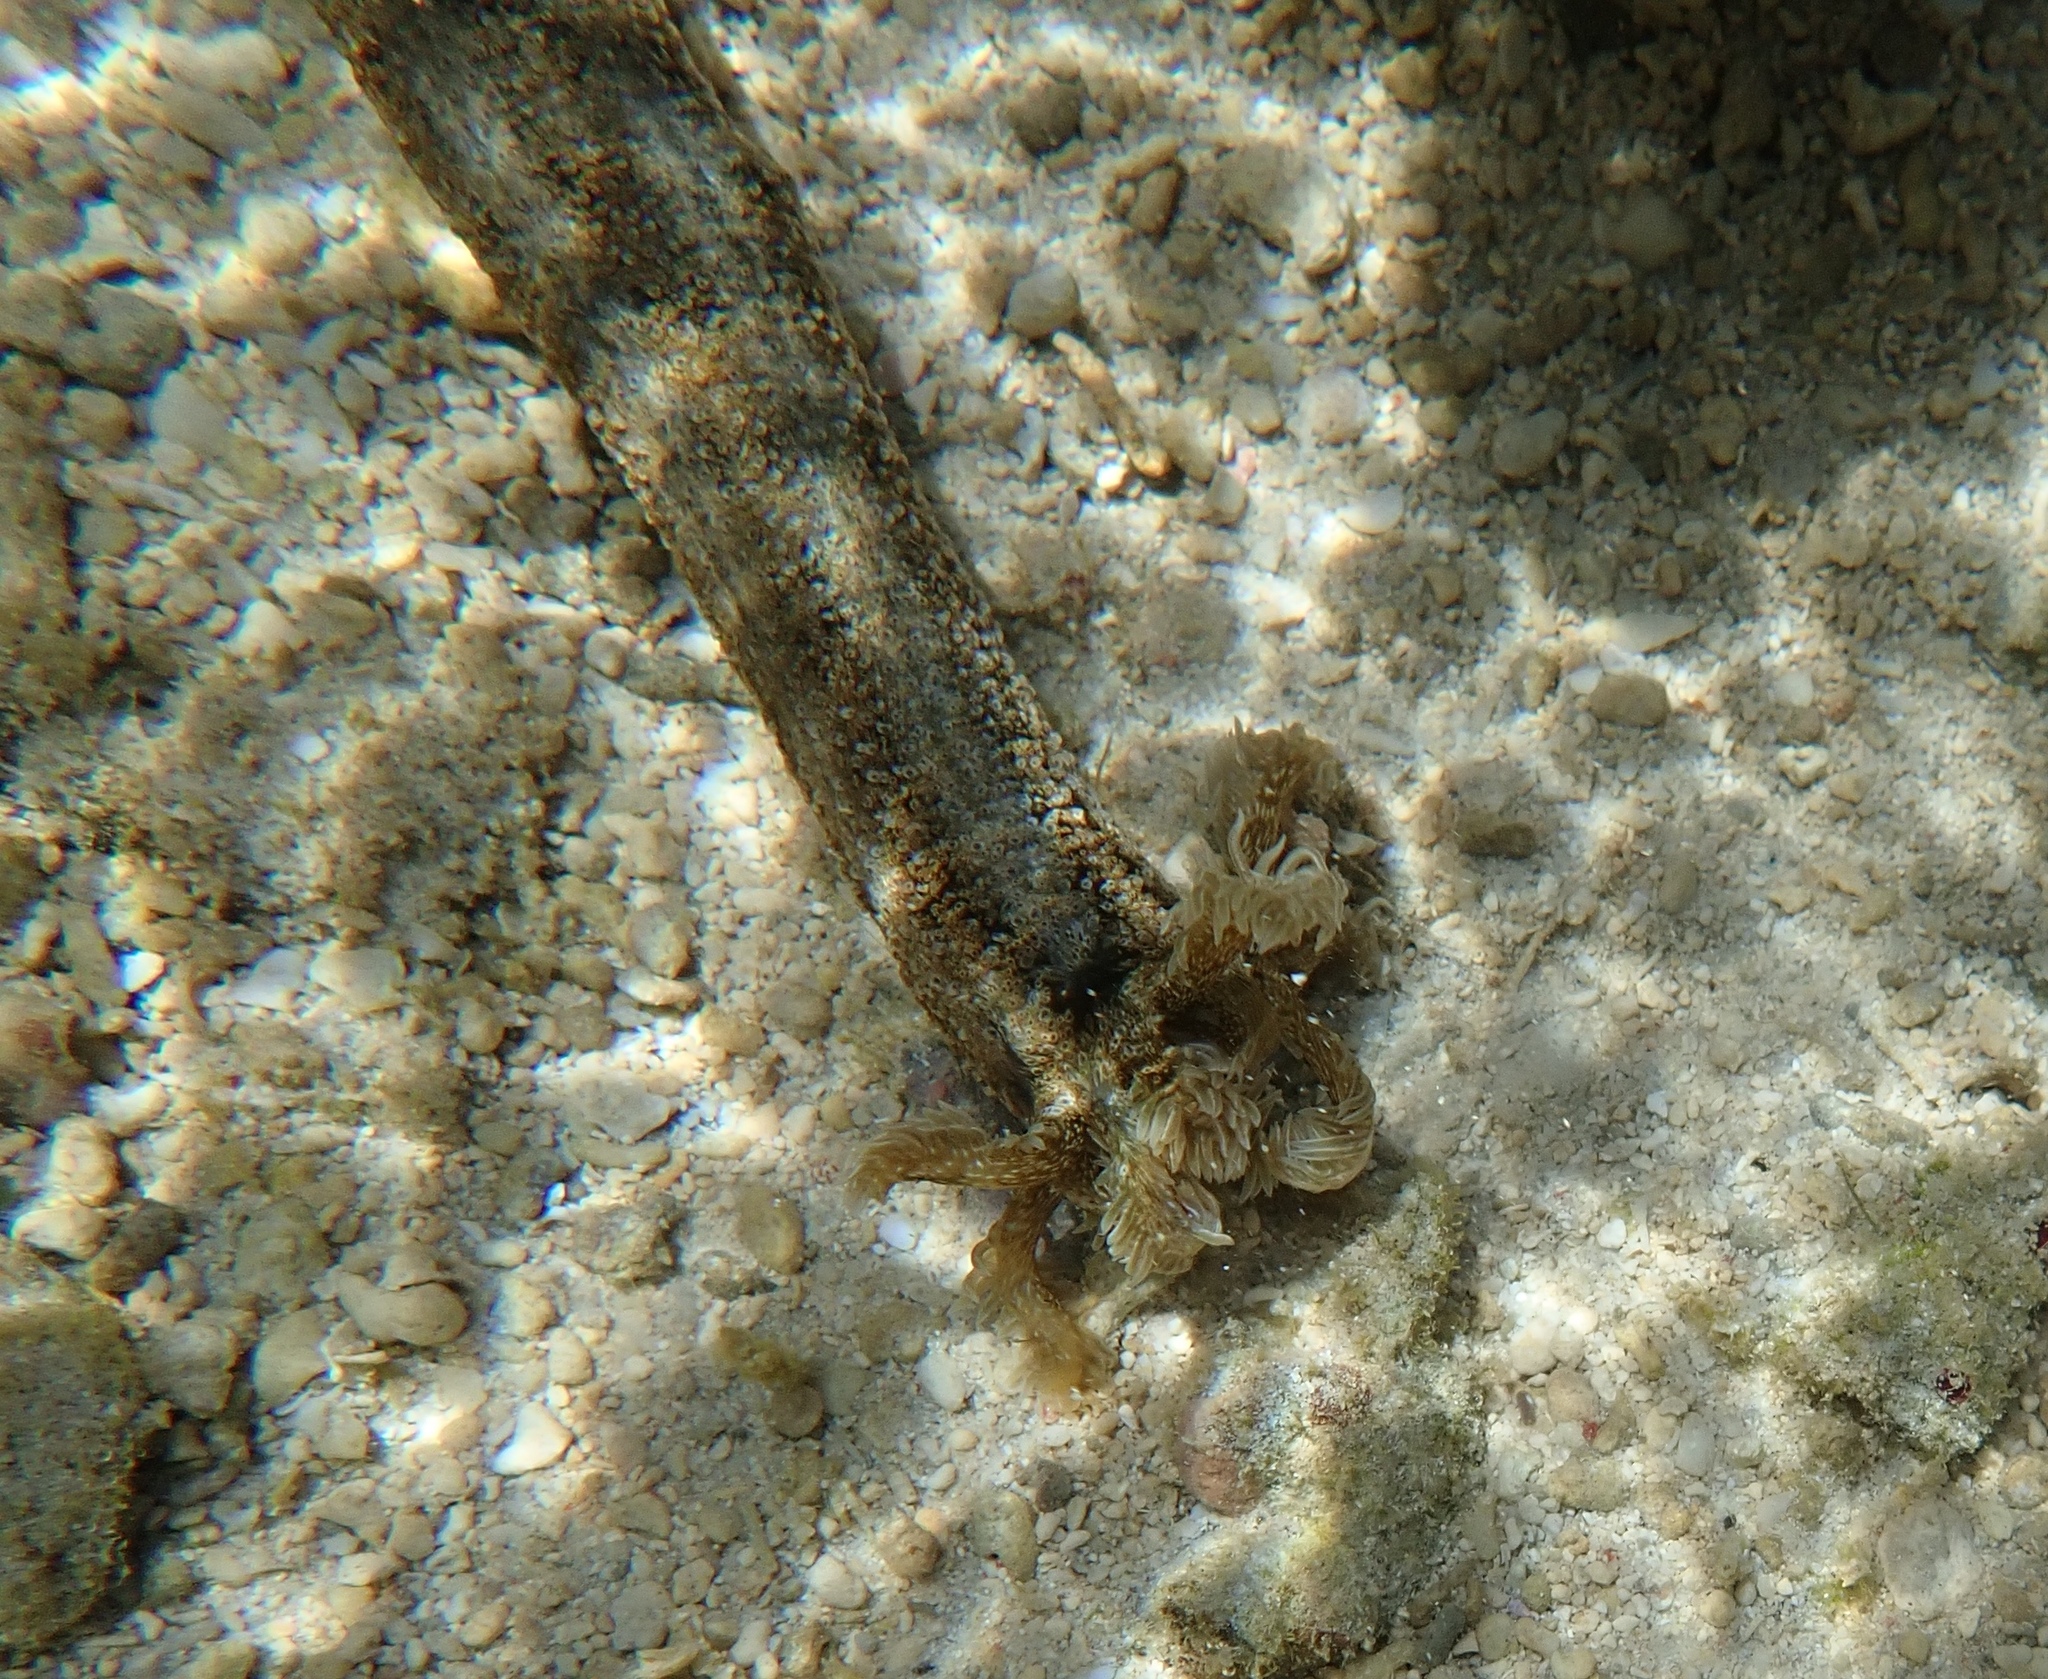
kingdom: Animalia
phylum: Echinodermata
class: Holothuroidea
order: Apodida
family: Synaptidae
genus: Synapta
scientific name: Synapta maculata
